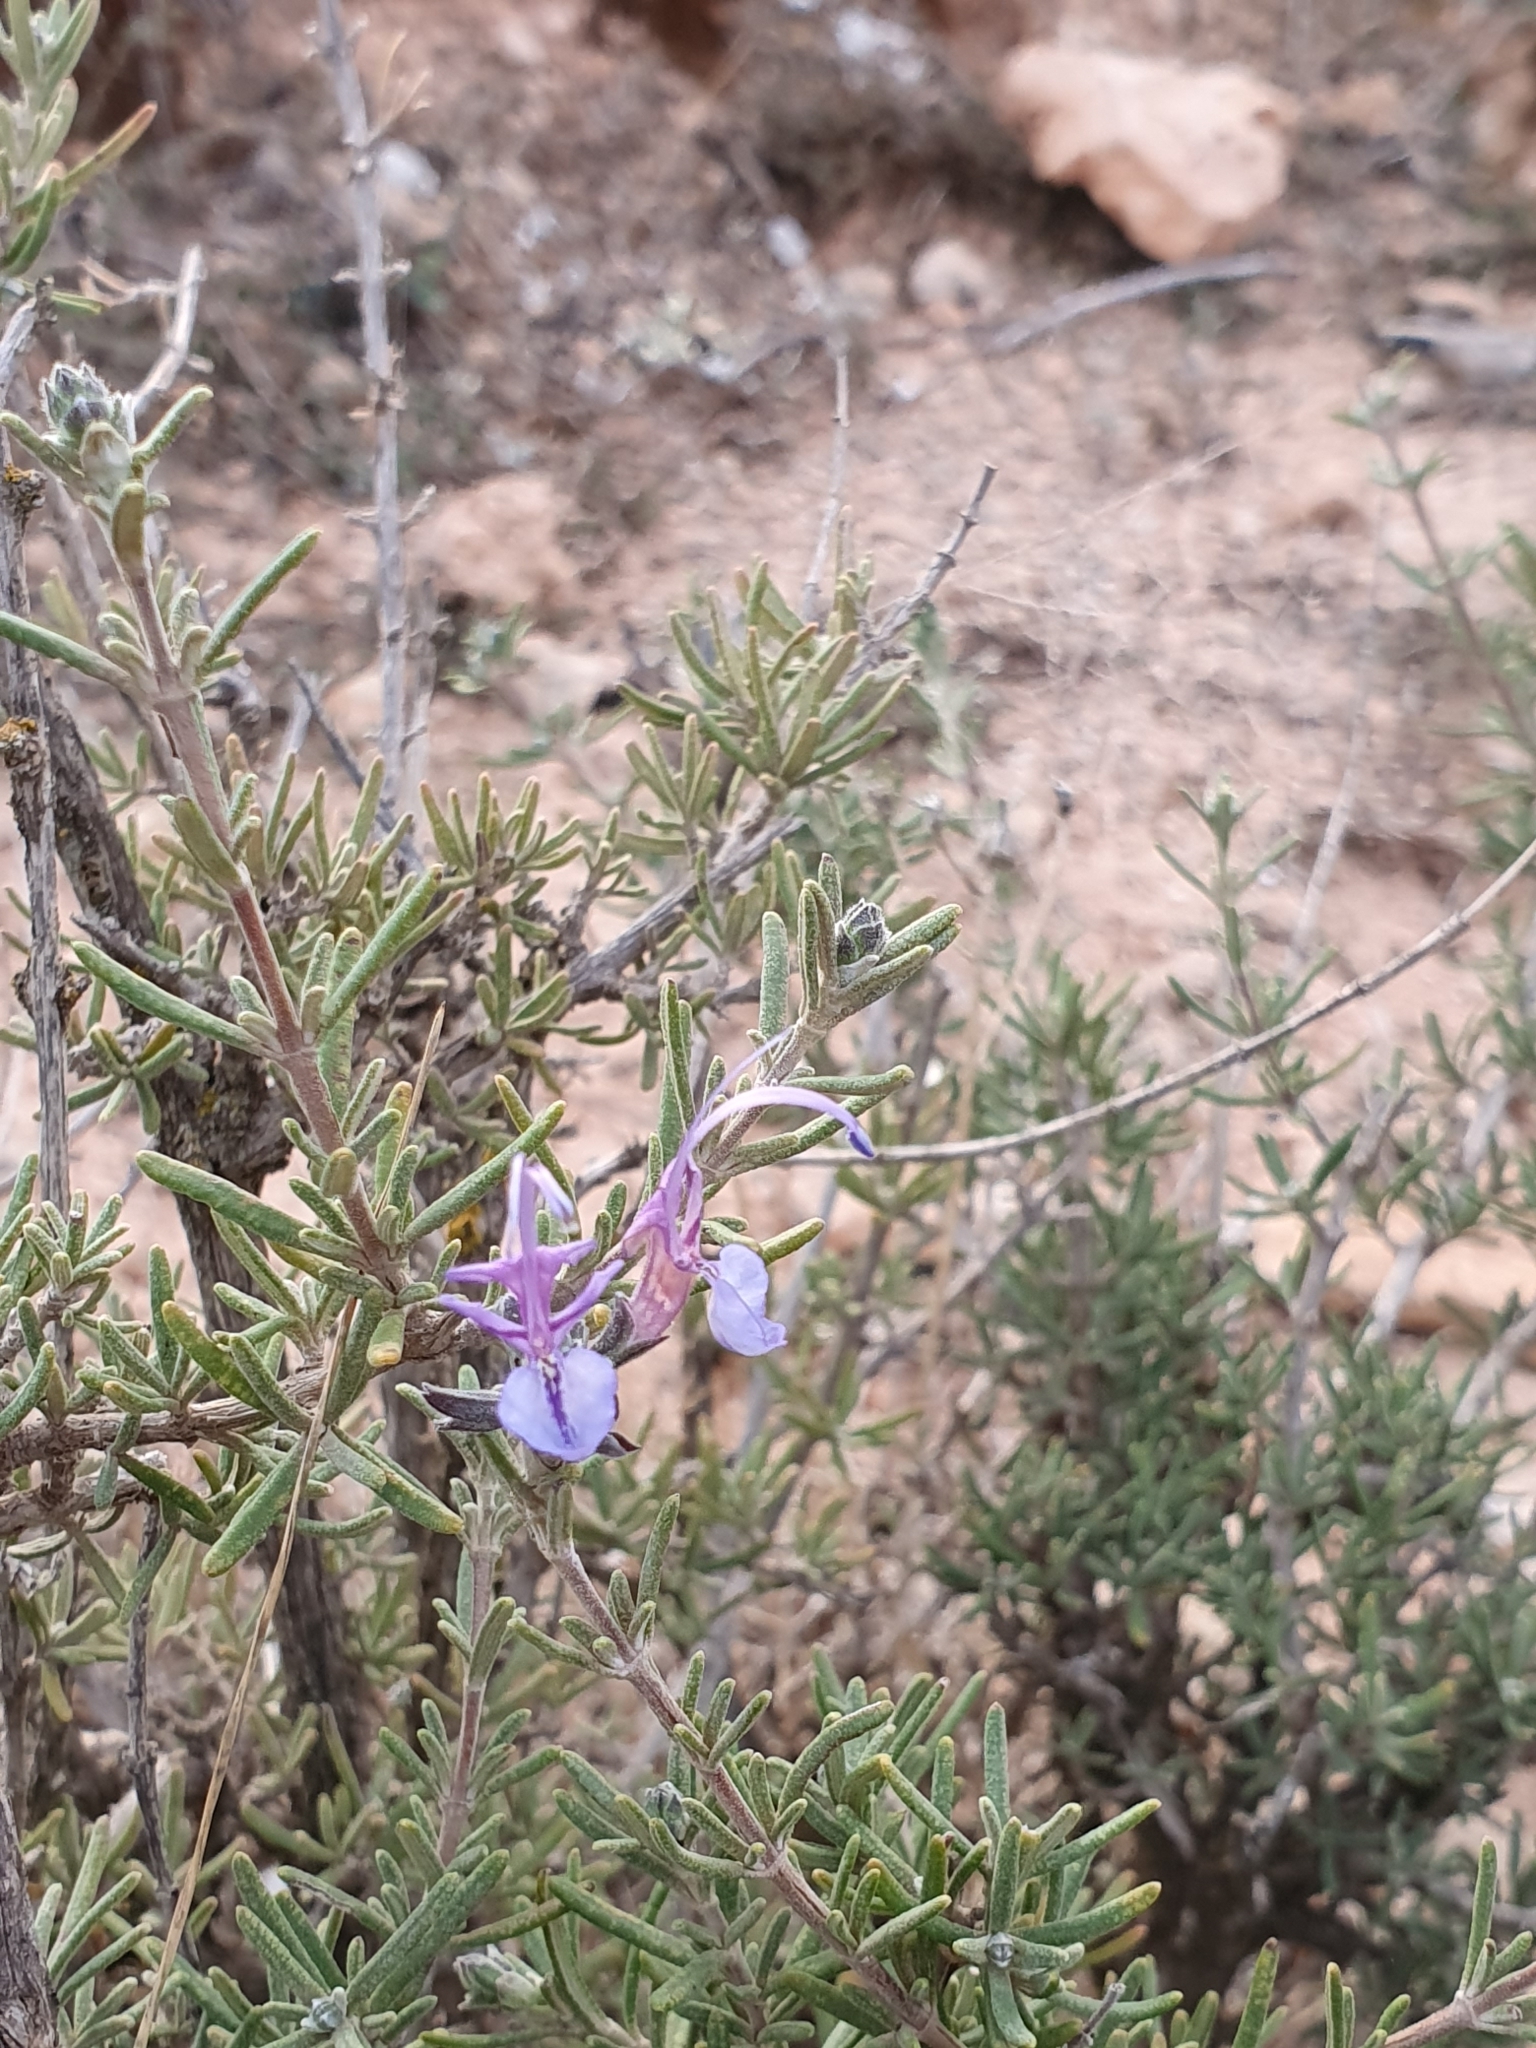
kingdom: Plantae
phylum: Tracheophyta
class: Magnoliopsida
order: Lamiales
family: Lamiaceae
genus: Salvia
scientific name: Salvia jordanii
